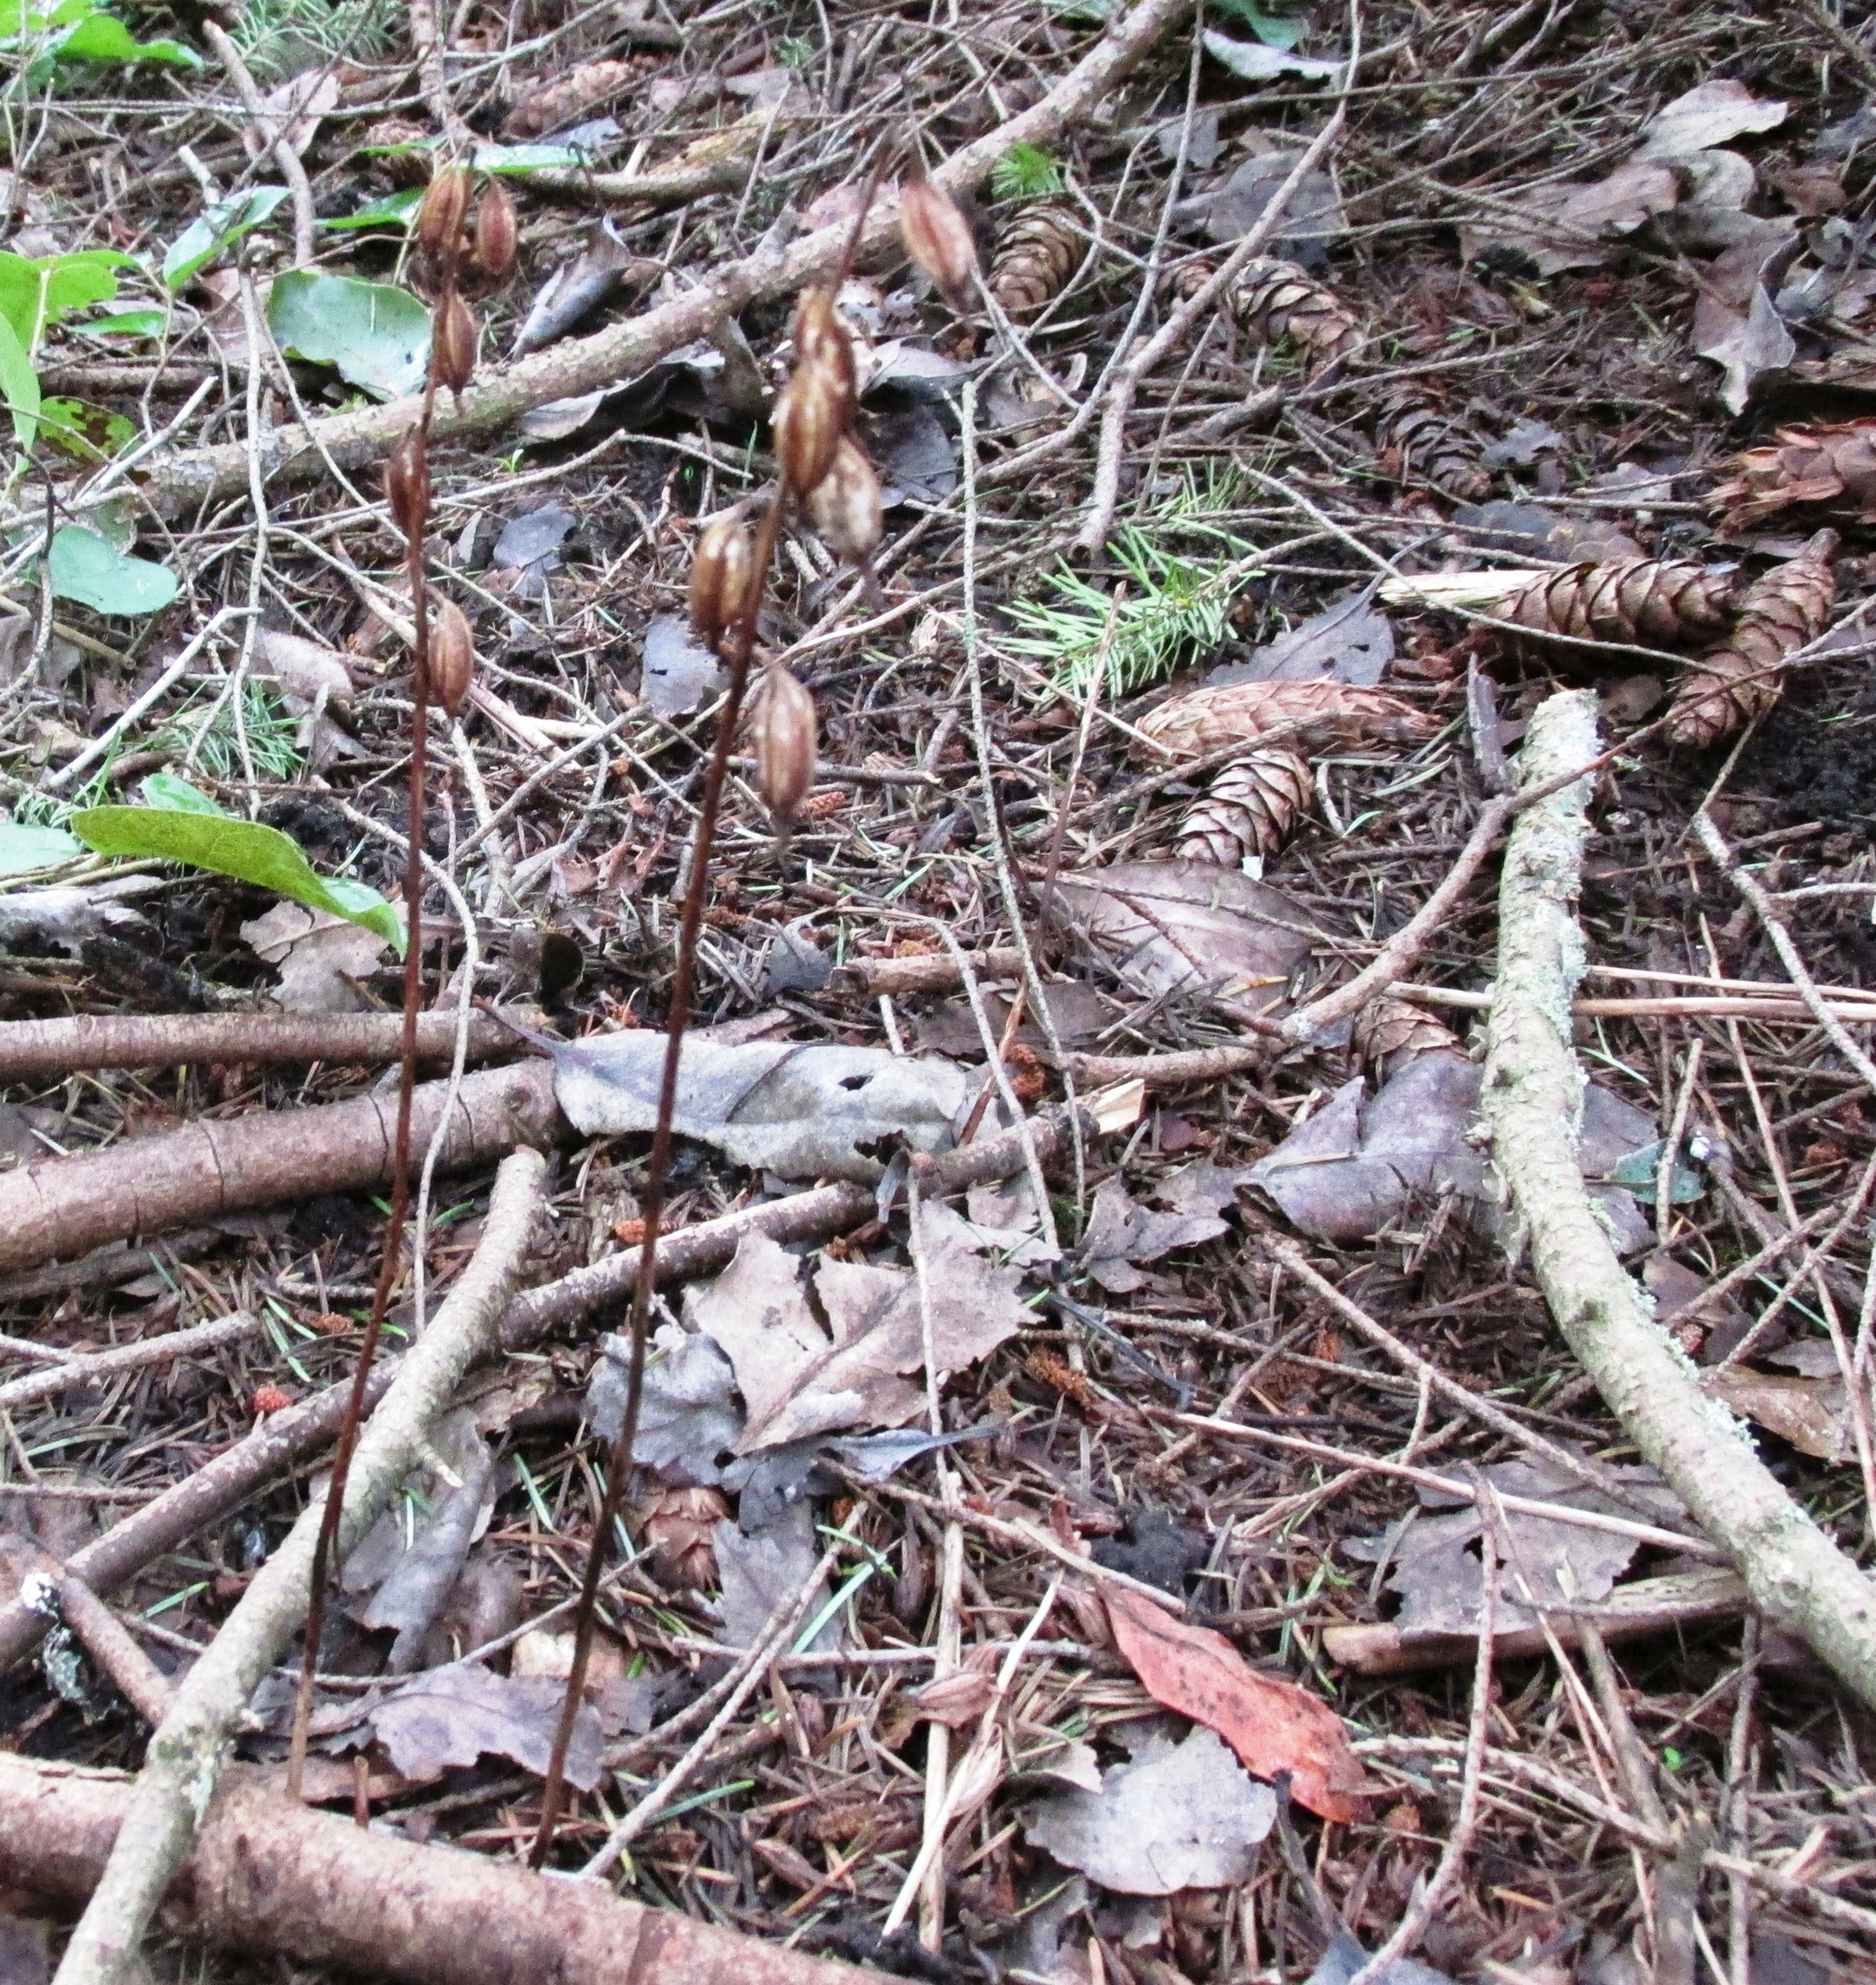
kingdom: Plantae
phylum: Tracheophyta
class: Liliopsida
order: Asparagales
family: Orchidaceae
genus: Corallorhiza
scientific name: Corallorhiza maculata
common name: Spotted coralroot
